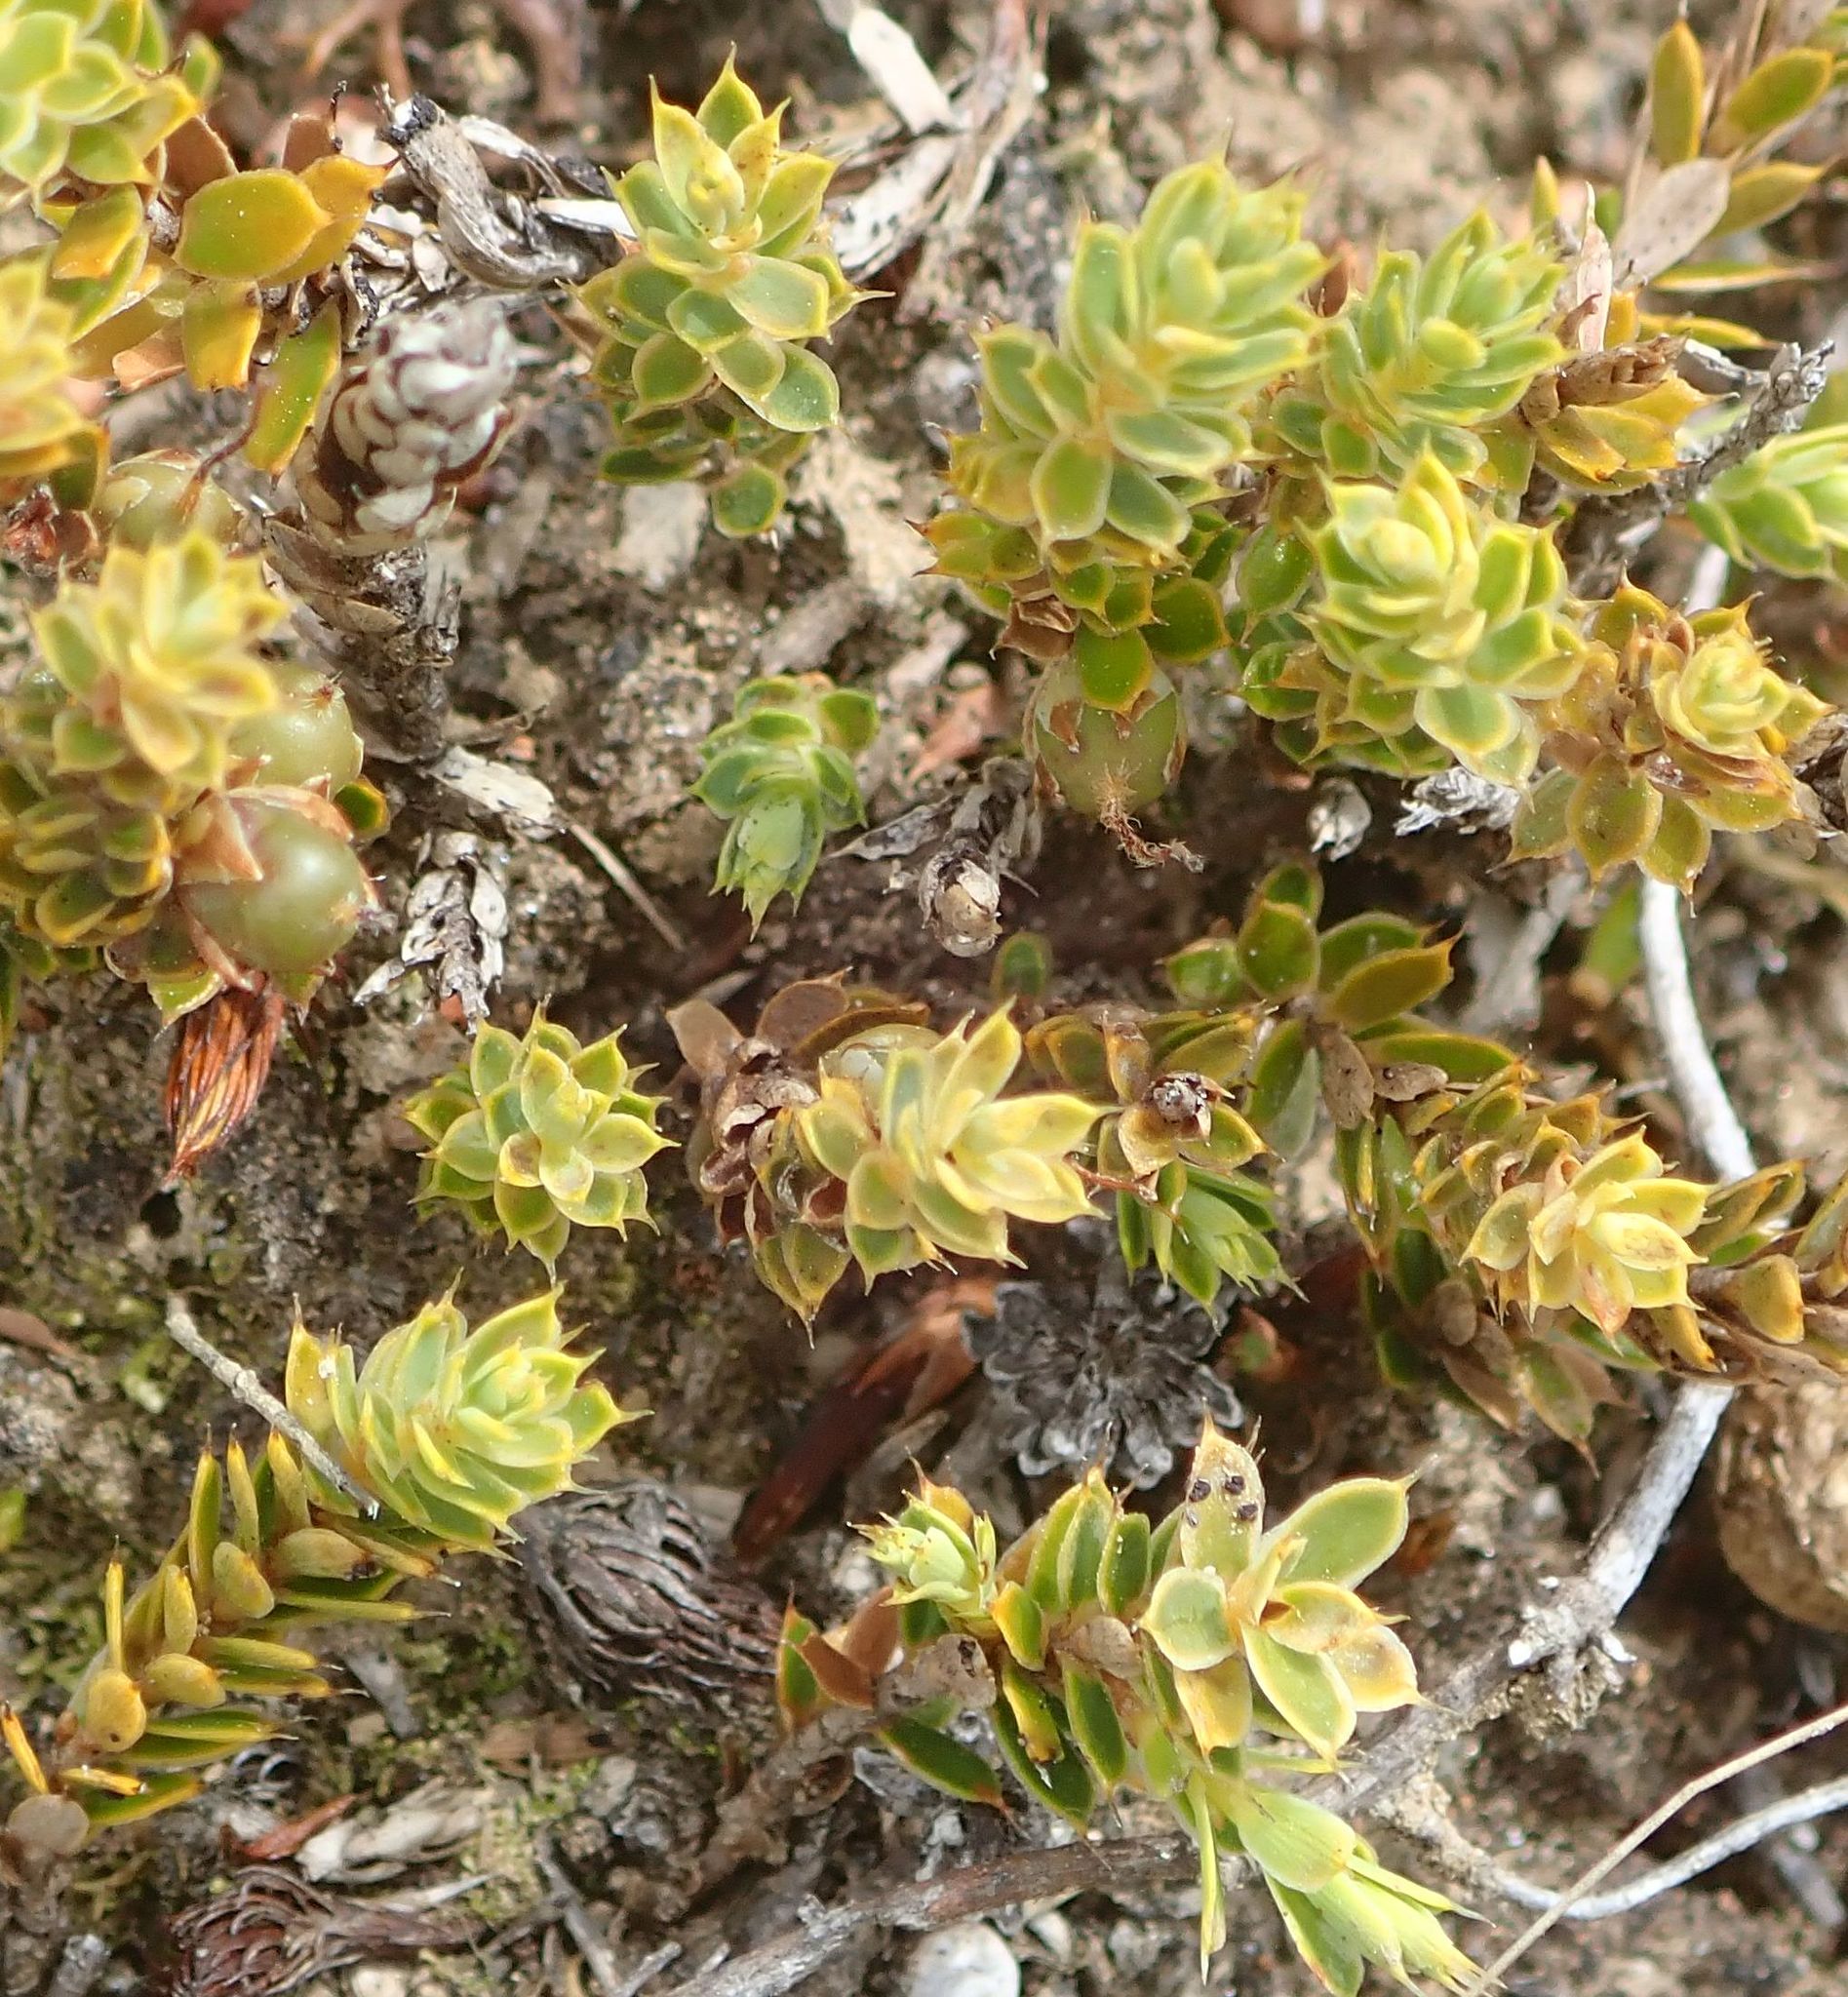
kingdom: Plantae
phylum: Tracheophyta
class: Magnoliopsida
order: Ericales
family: Ericaceae
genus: Styphelia
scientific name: Styphelia nesophila
